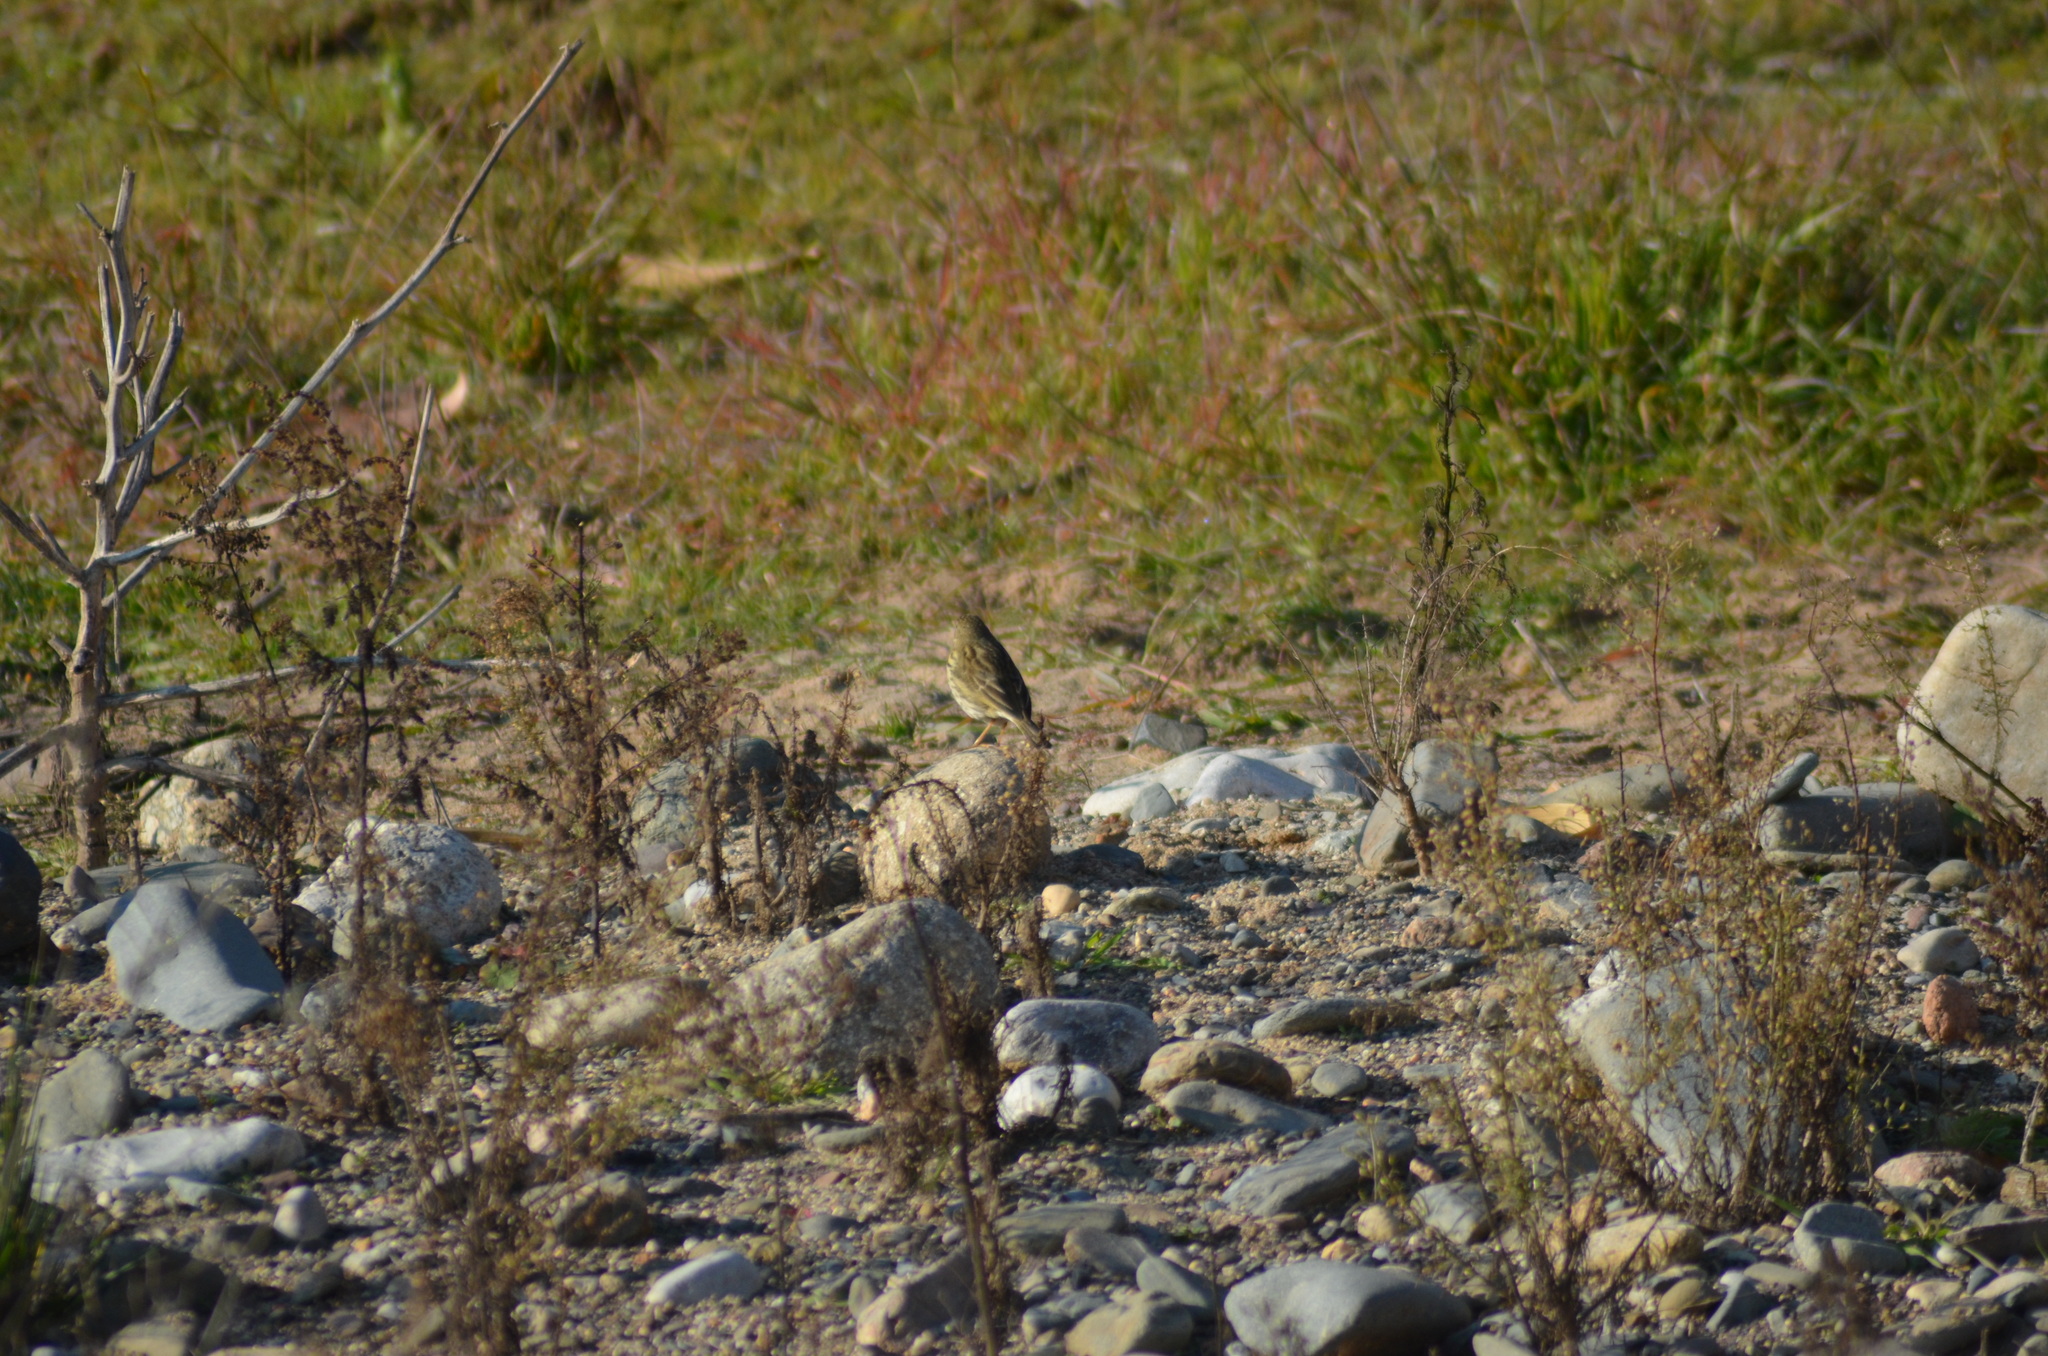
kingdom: Animalia
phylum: Chordata
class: Aves
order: Passeriformes
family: Motacillidae
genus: Anthus
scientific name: Anthus pratensis
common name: Meadow pipit
